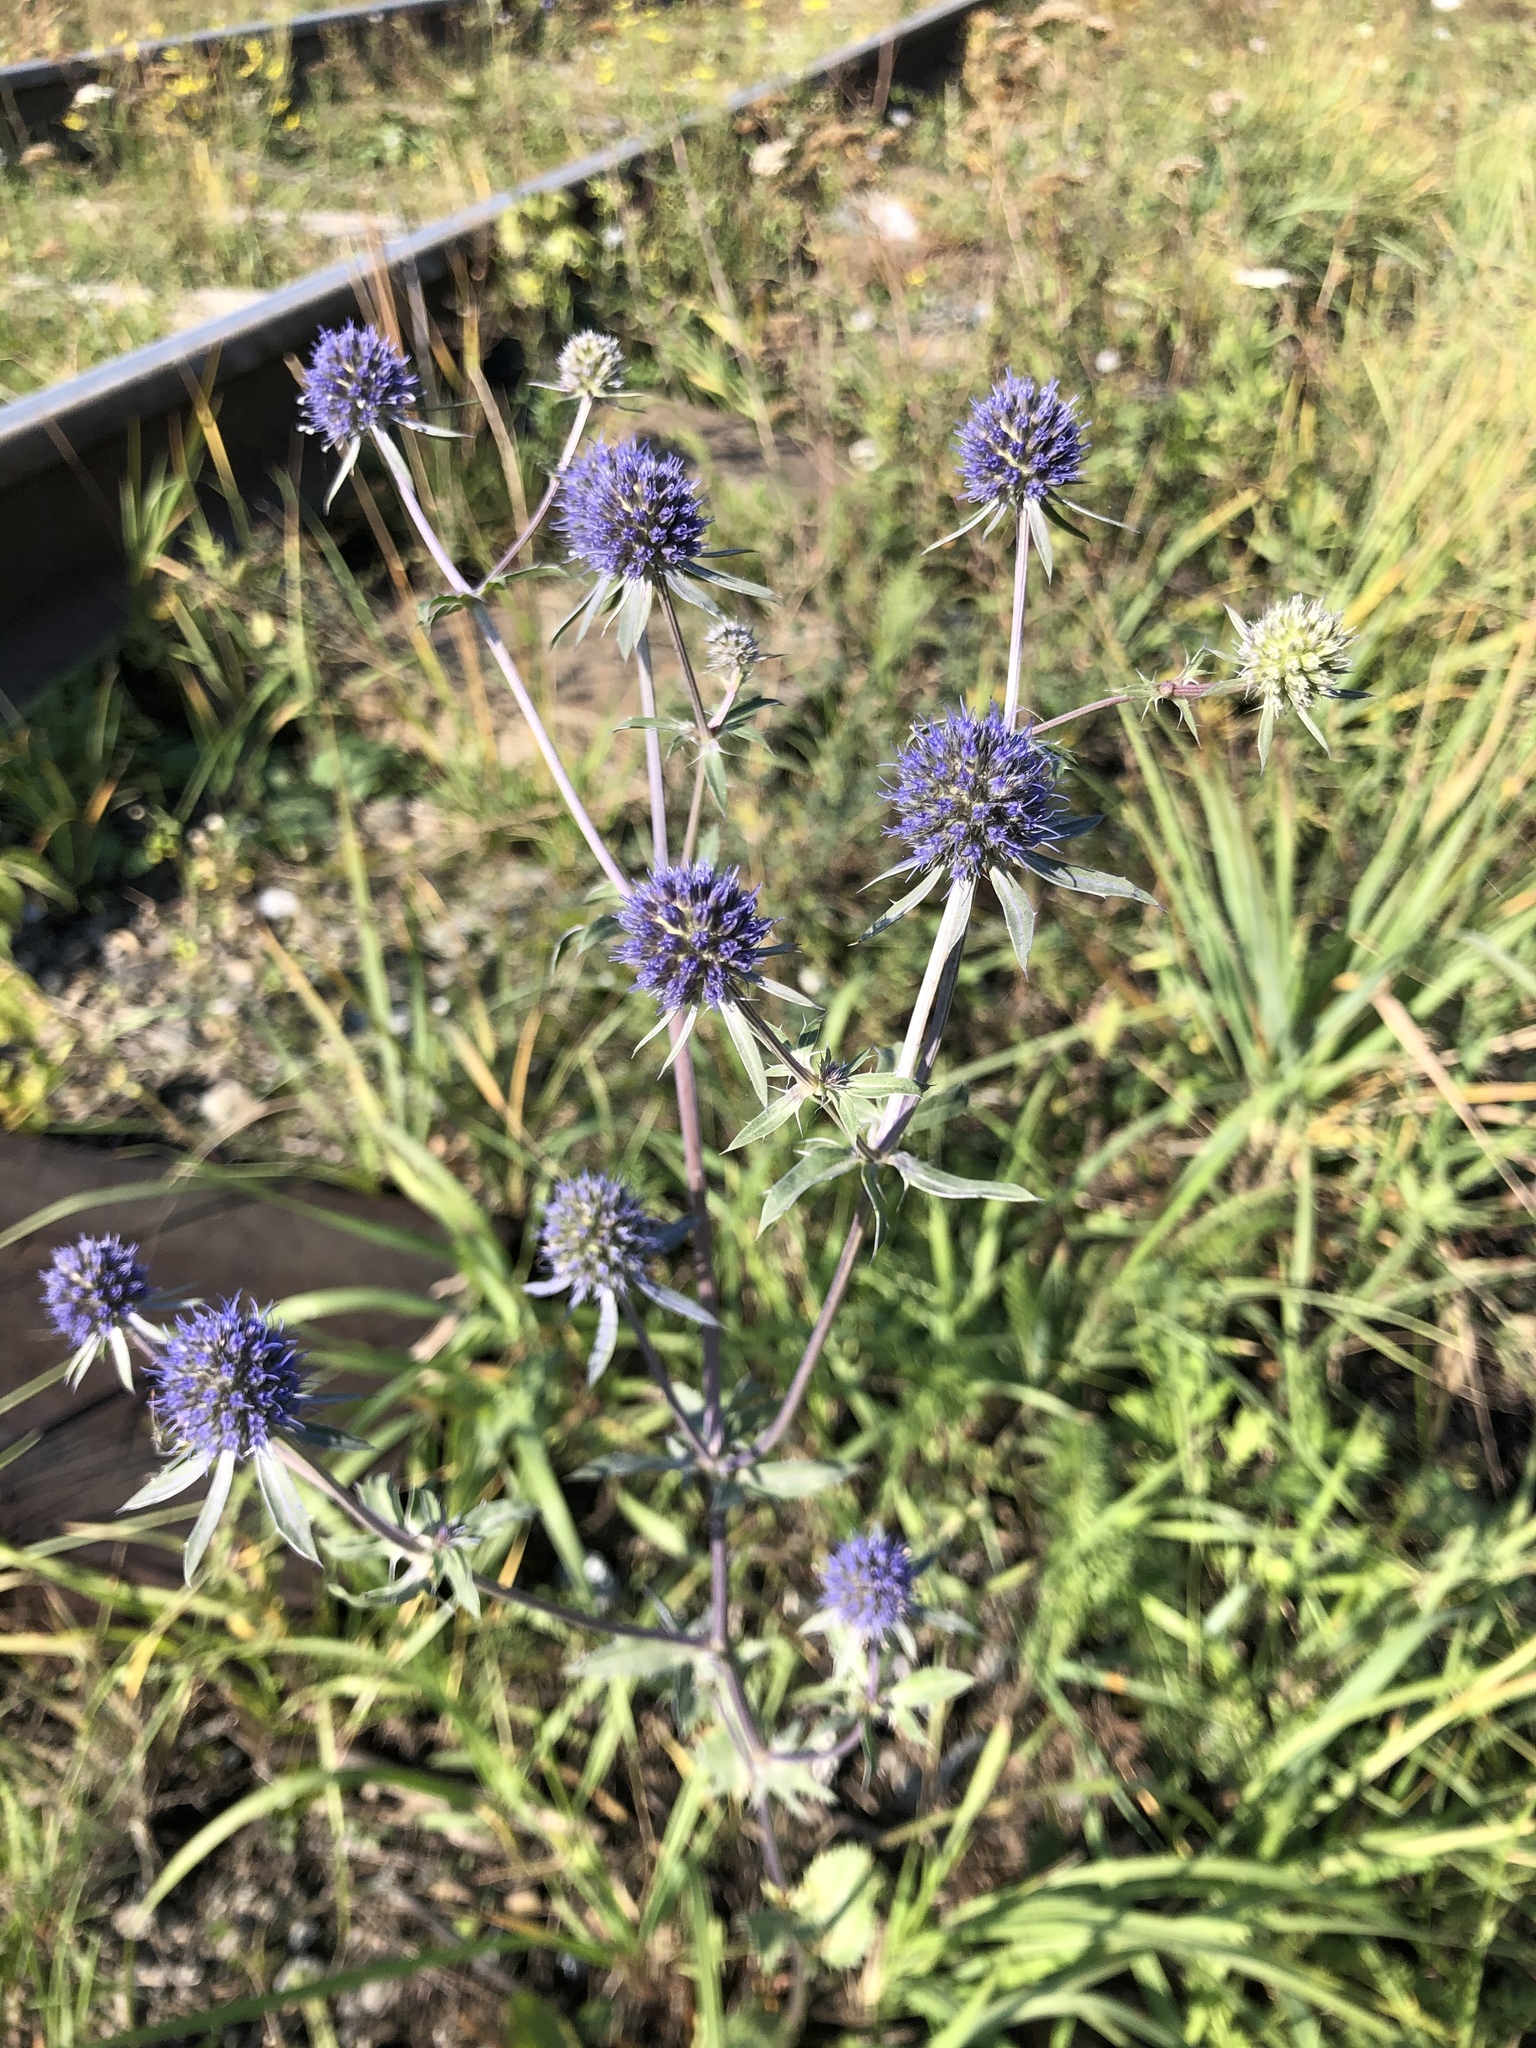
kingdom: Plantae
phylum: Tracheophyta
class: Magnoliopsida
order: Apiales
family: Apiaceae
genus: Eryngium
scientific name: Eryngium planum
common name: Blue eryngo
